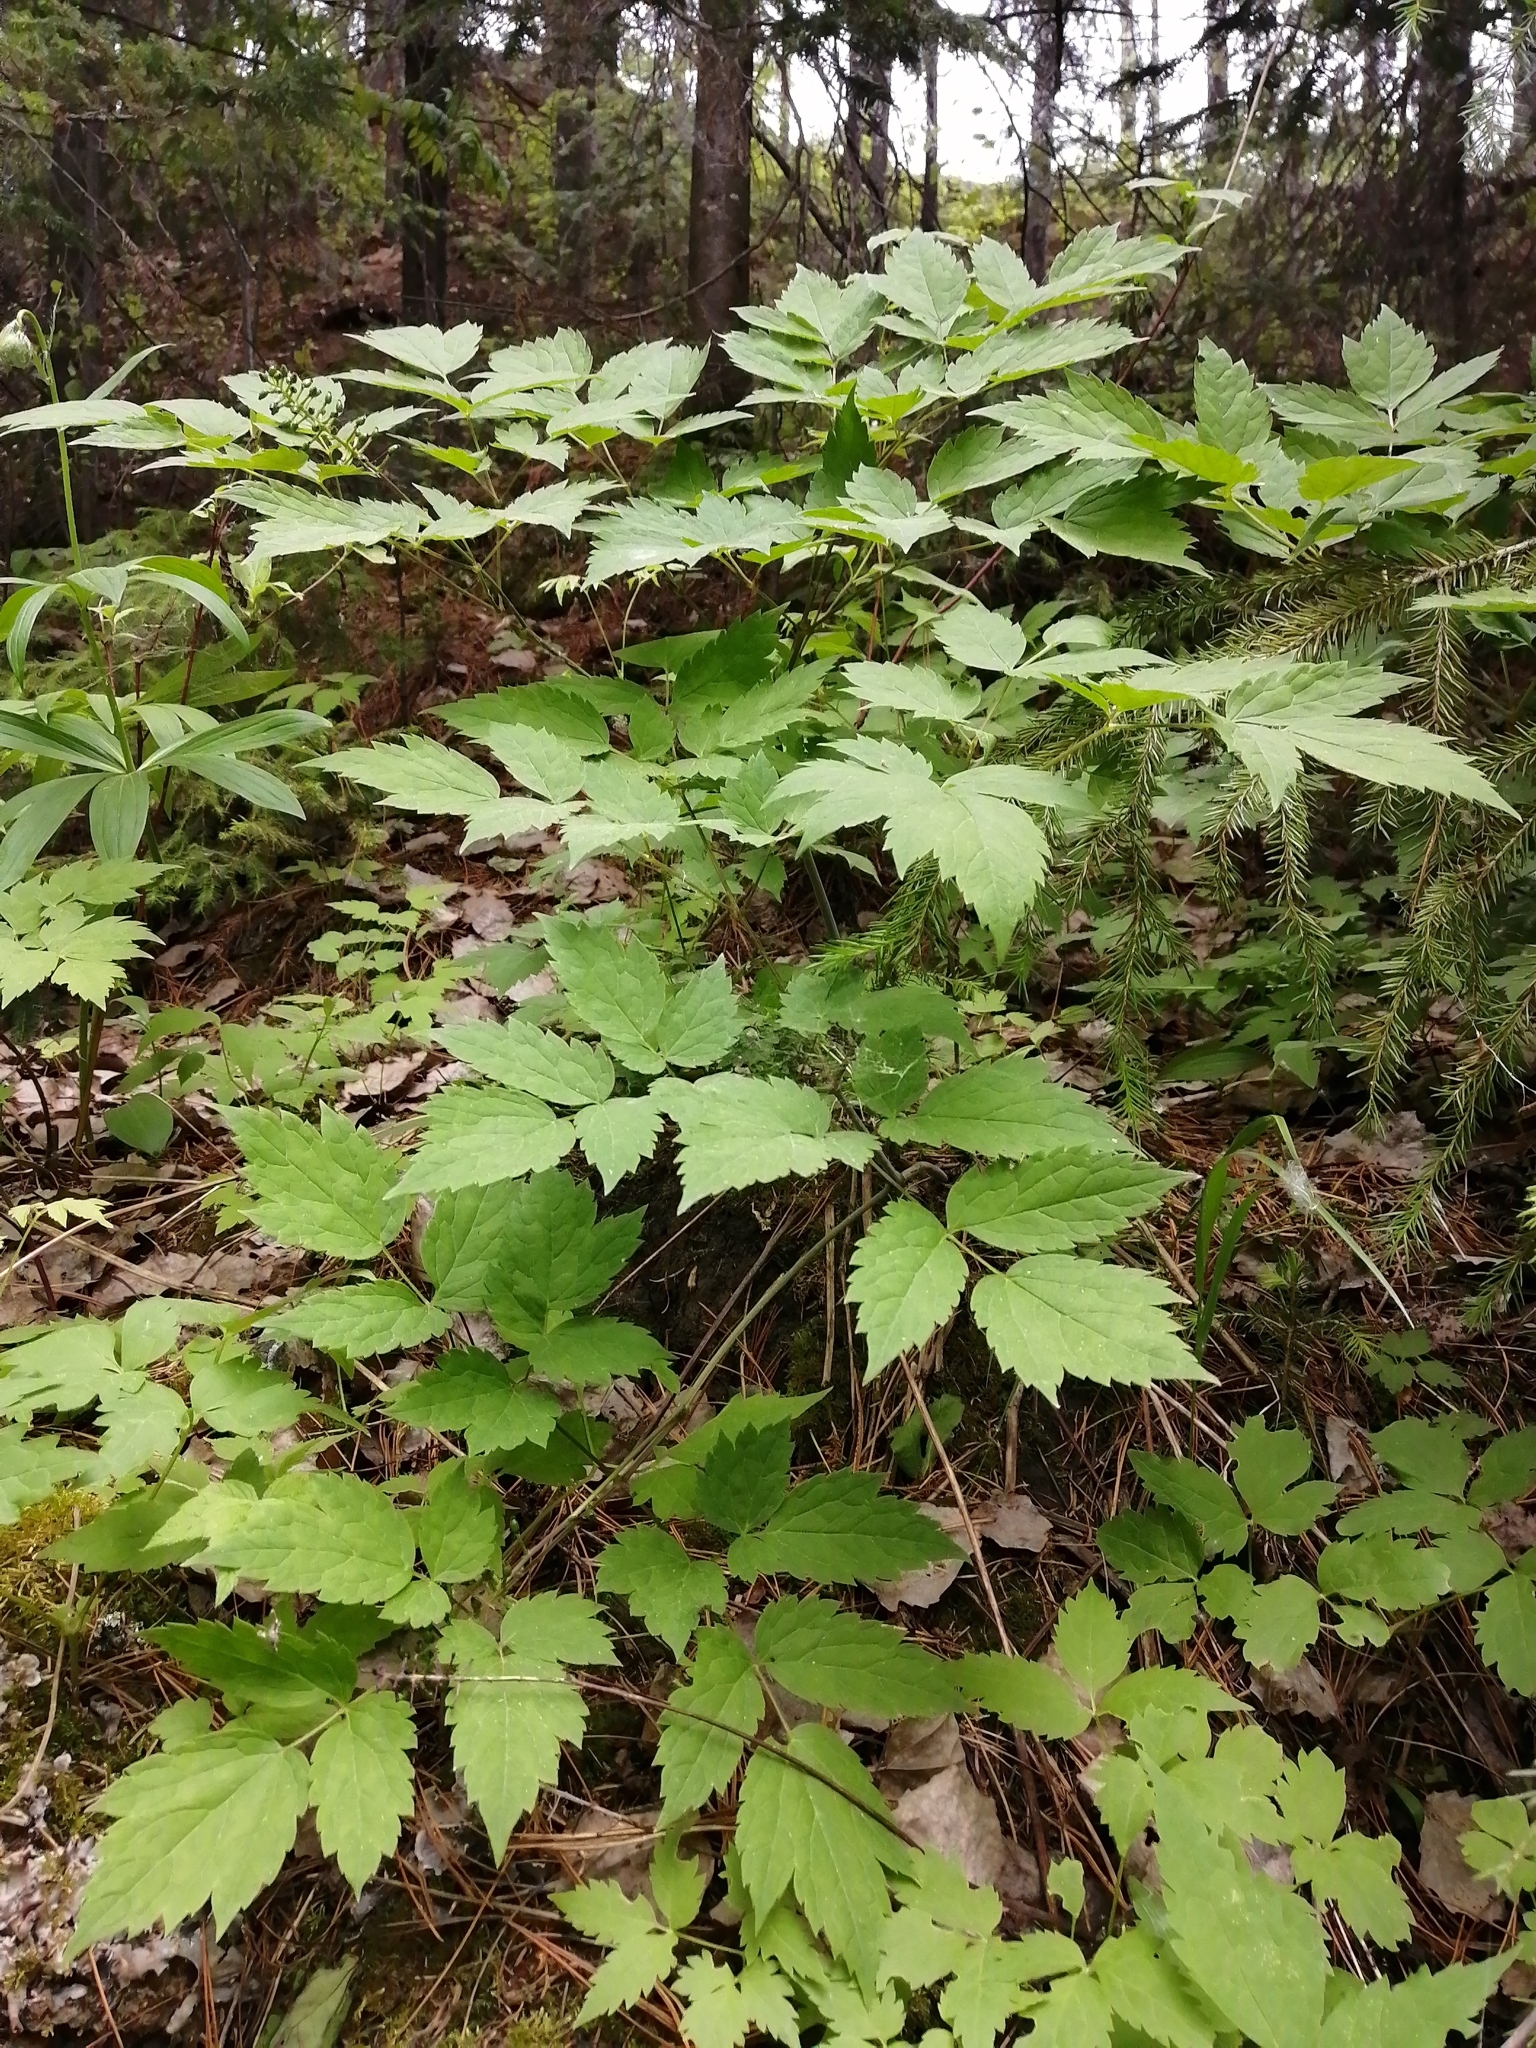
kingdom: Plantae
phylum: Tracheophyta
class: Magnoliopsida
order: Ranunculales
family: Ranunculaceae
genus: Actaea
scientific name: Actaea erythrocarpa
